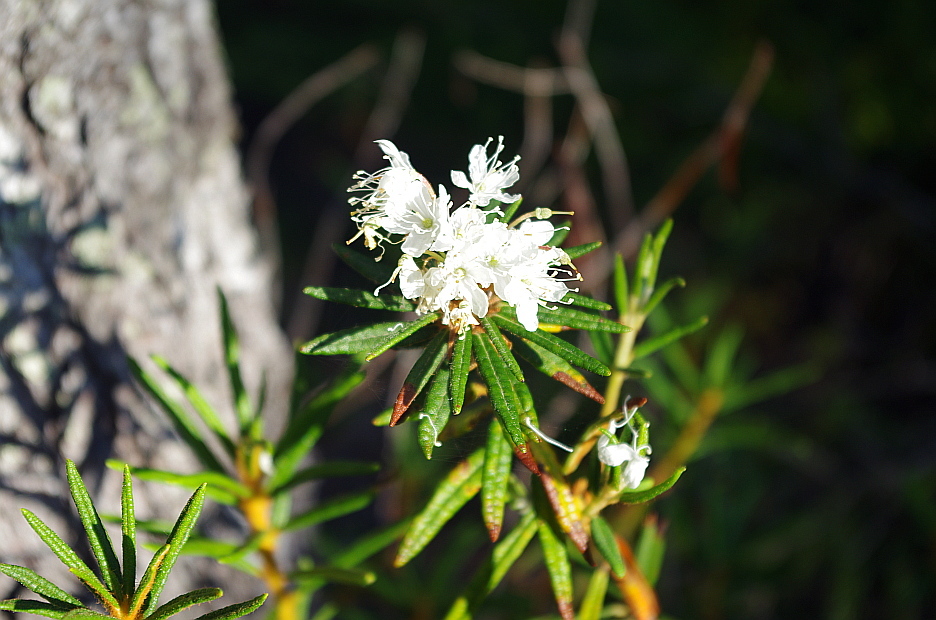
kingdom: Plantae
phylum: Tracheophyta
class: Magnoliopsida
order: Ericales
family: Ericaceae
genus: Rhododendron
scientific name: Rhododendron tomentosum
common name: Marsh labrador tea
